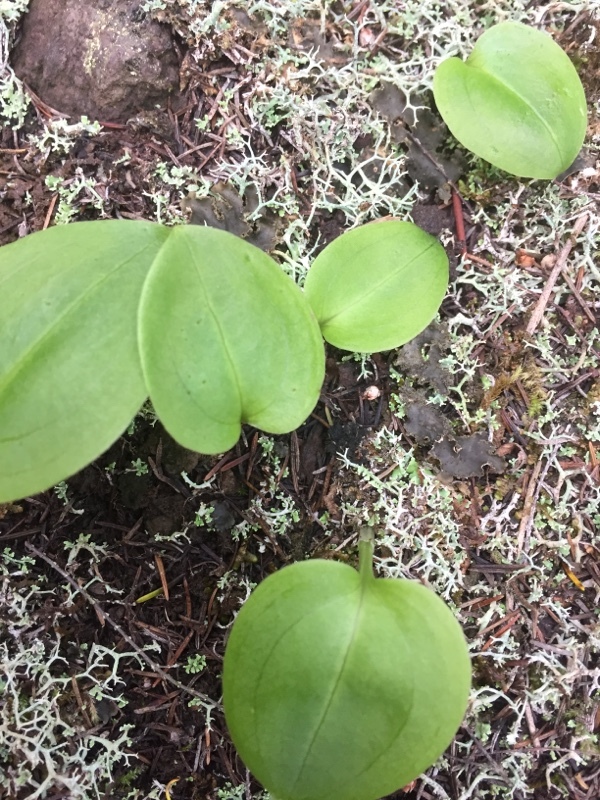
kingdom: Plantae
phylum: Tracheophyta
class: Liliopsida
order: Asparagales
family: Orchidaceae
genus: Gennaria
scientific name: Gennaria diphylla
